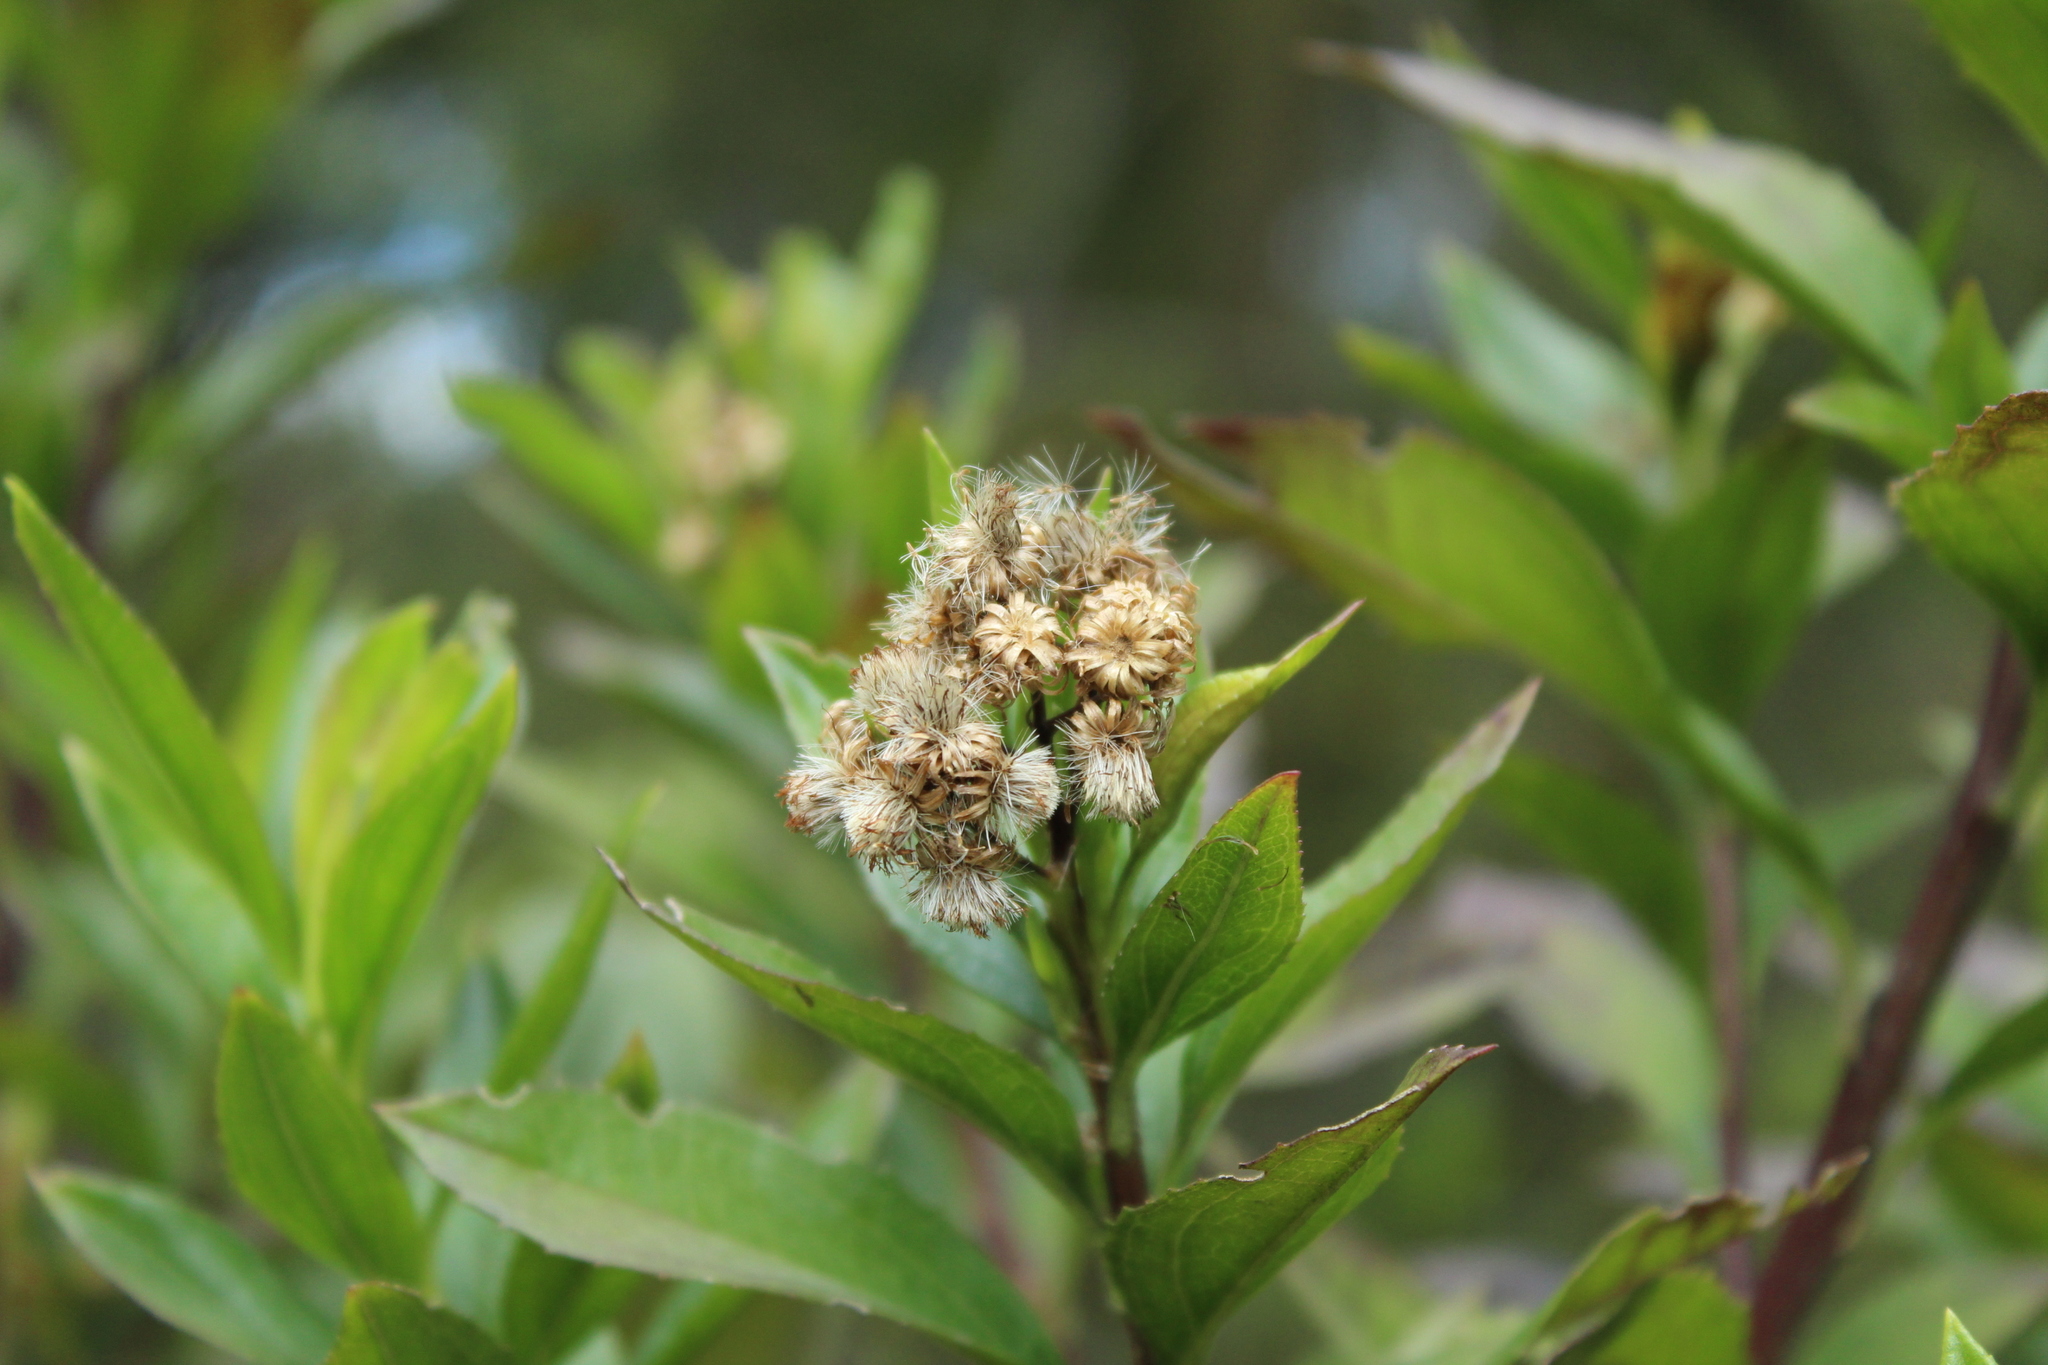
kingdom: Plantae
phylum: Tracheophyta
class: Magnoliopsida
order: Asterales
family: Asteraceae
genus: Baccharis
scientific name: Baccharis prunifolia
